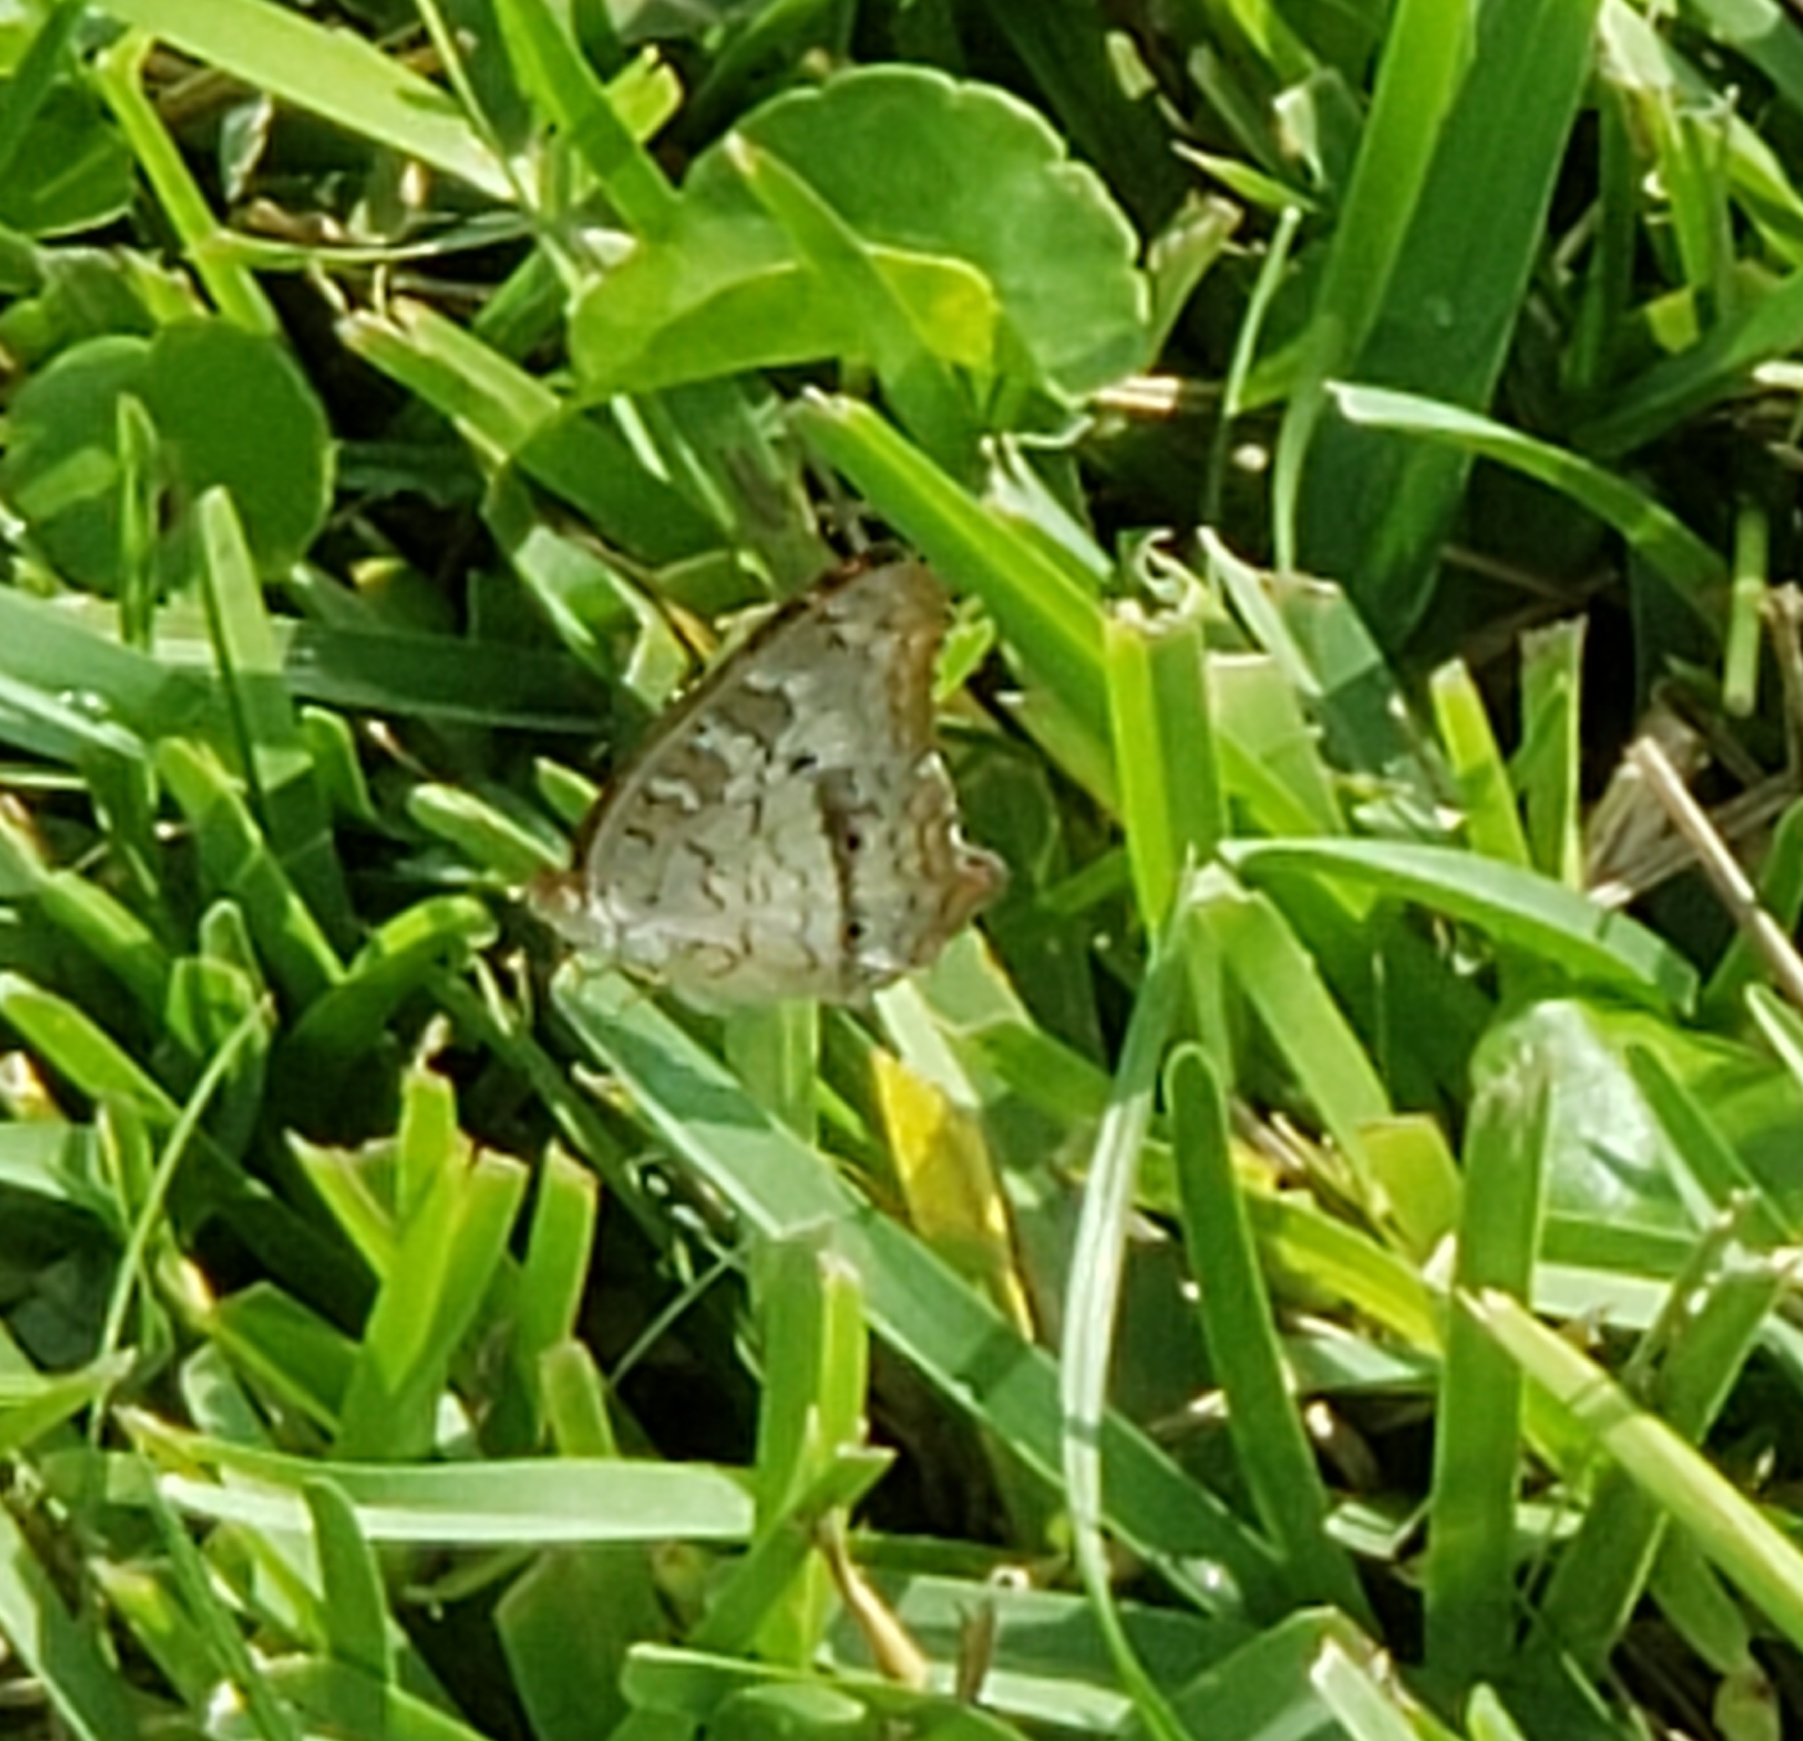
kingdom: Animalia
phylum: Arthropoda
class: Insecta
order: Lepidoptera
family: Nymphalidae
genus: Anartia
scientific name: Anartia jatrophae
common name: White peacock
